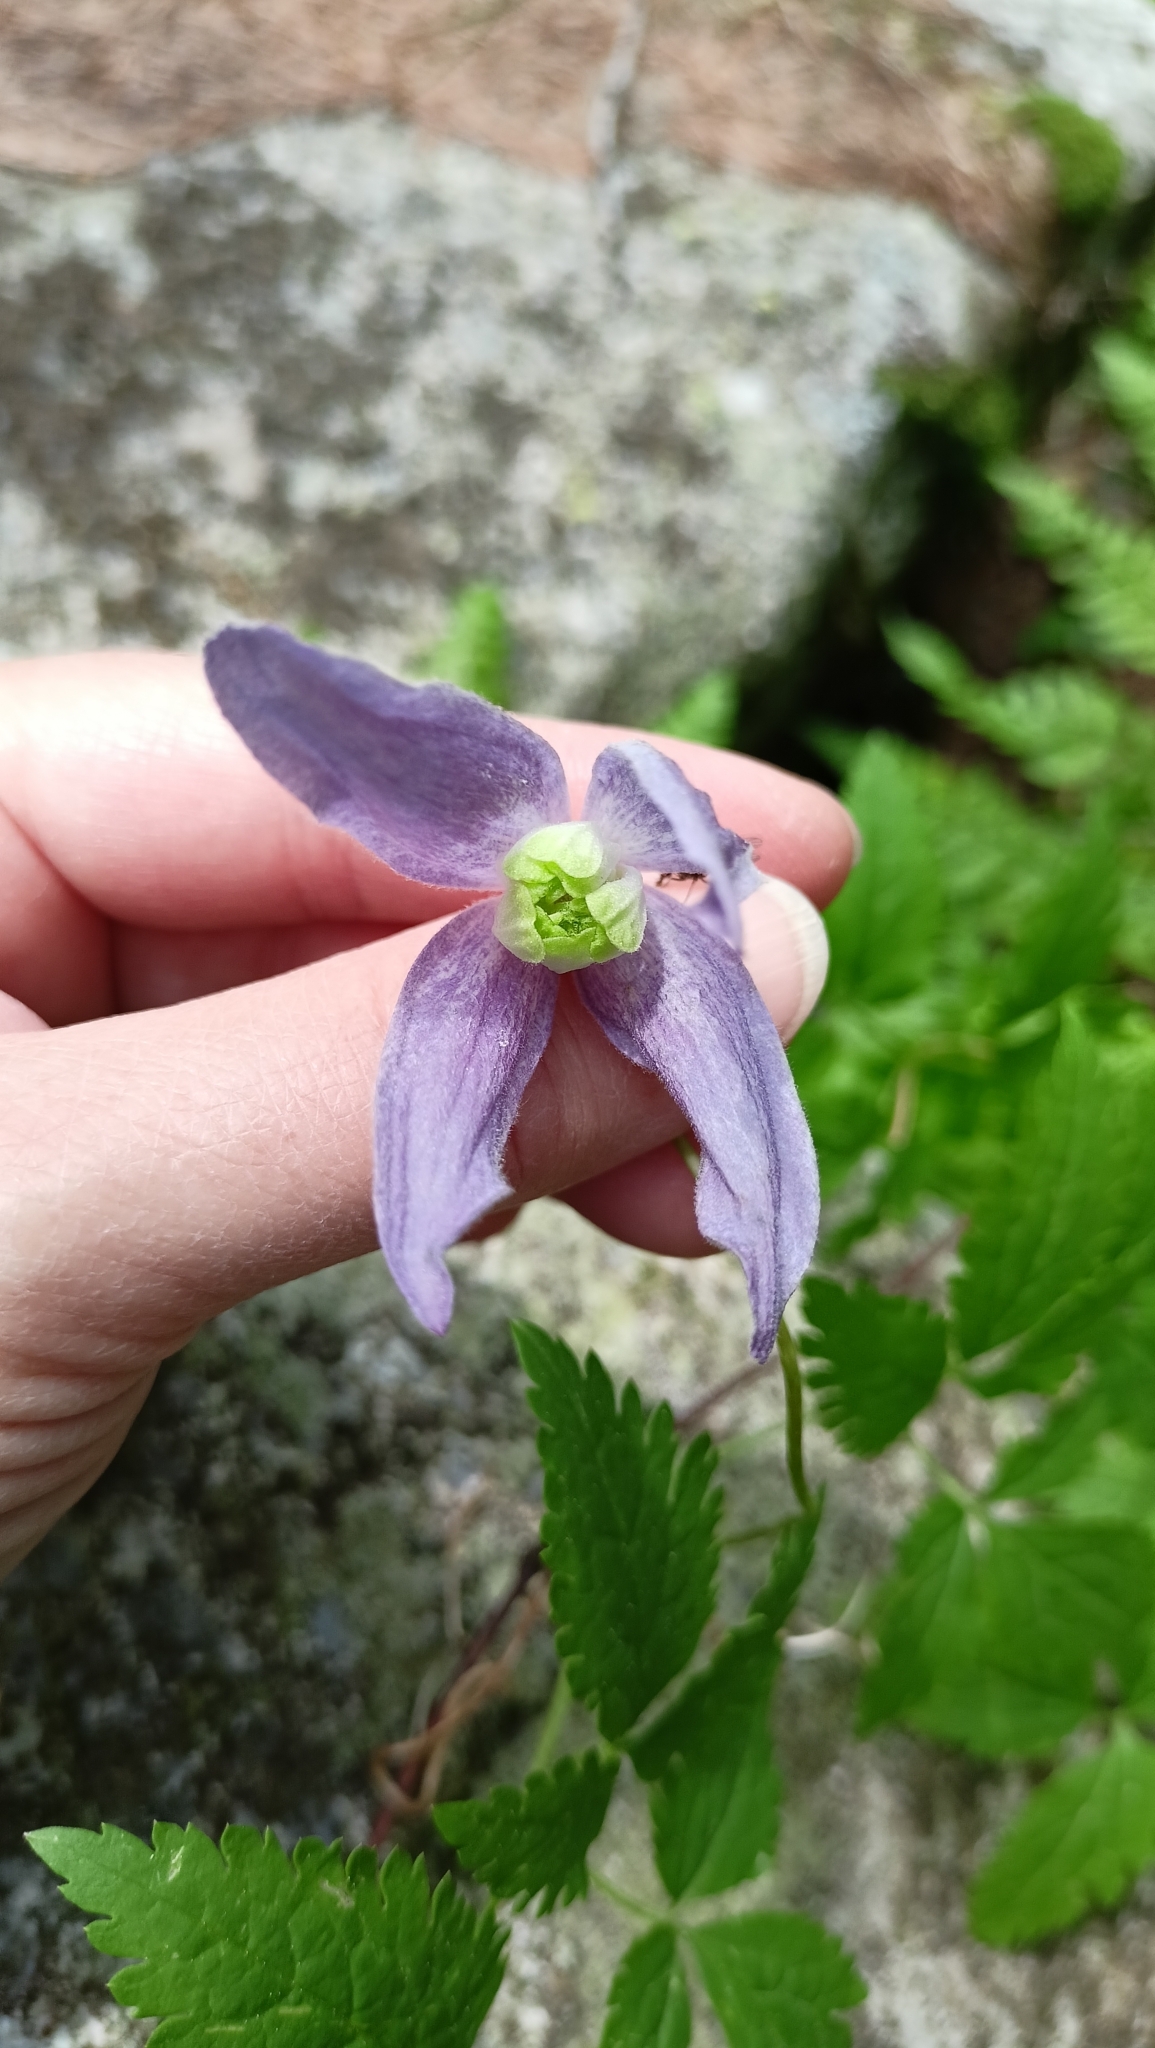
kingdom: Plantae
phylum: Tracheophyta
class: Magnoliopsida
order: Ranunculales
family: Ranunculaceae
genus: Clematis
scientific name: Clematis alpina
